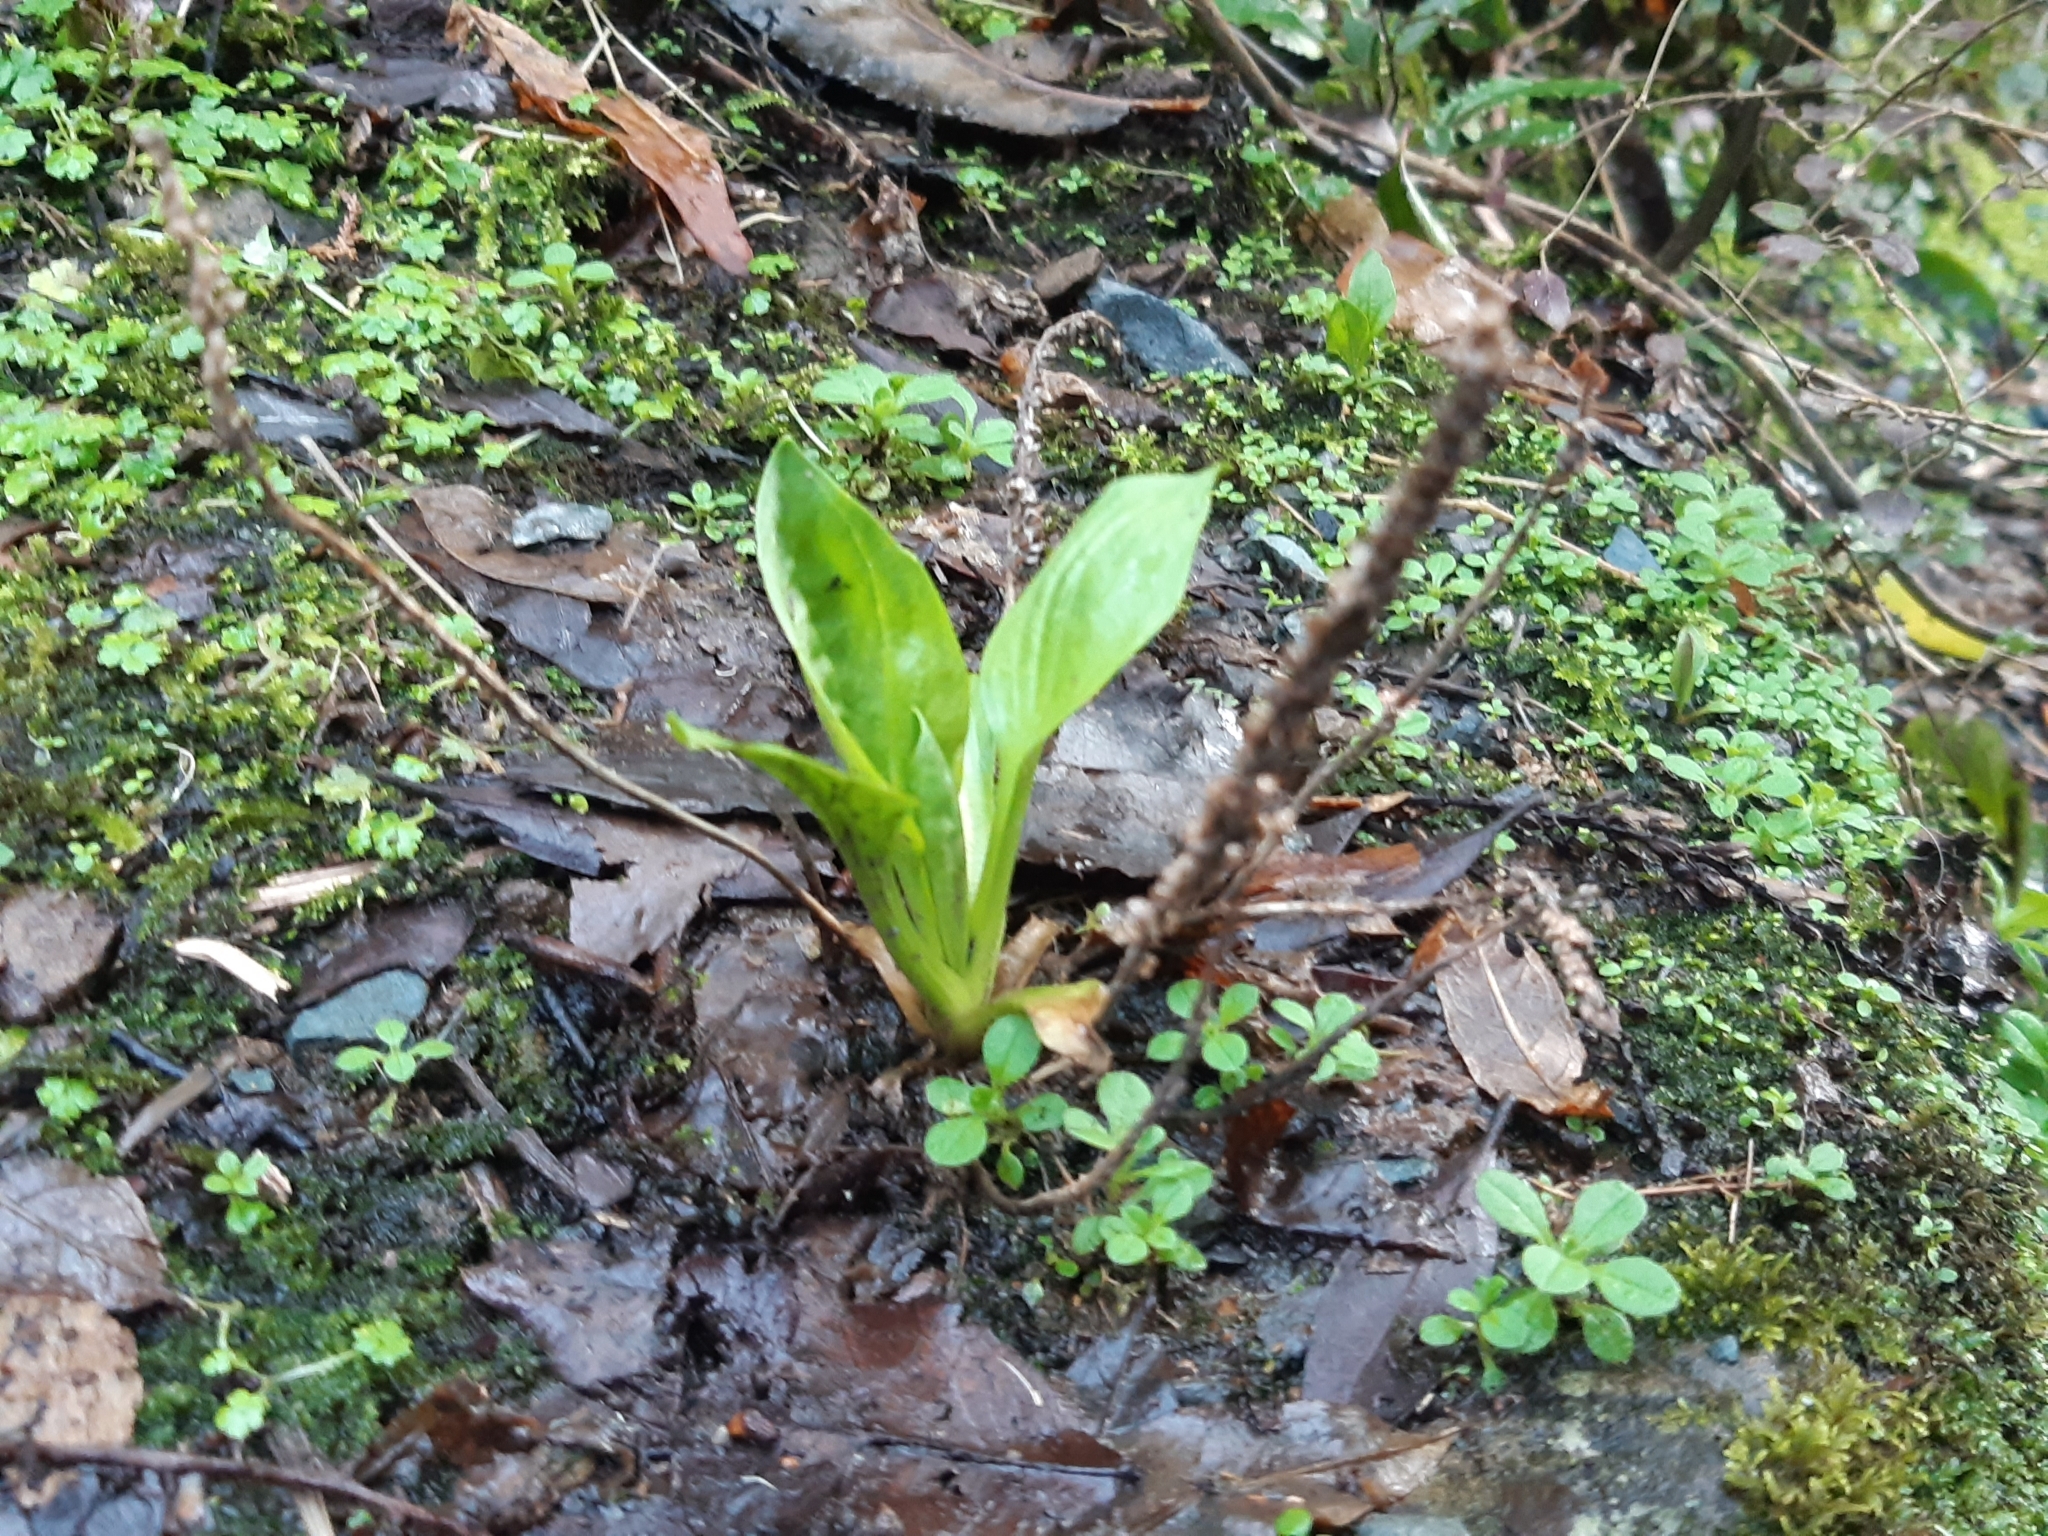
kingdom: Plantae
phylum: Tracheophyta
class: Magnoliopsida
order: Lamiales
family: Plantaginaceae
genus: Plantago
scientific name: Plantago major
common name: Common plantain
